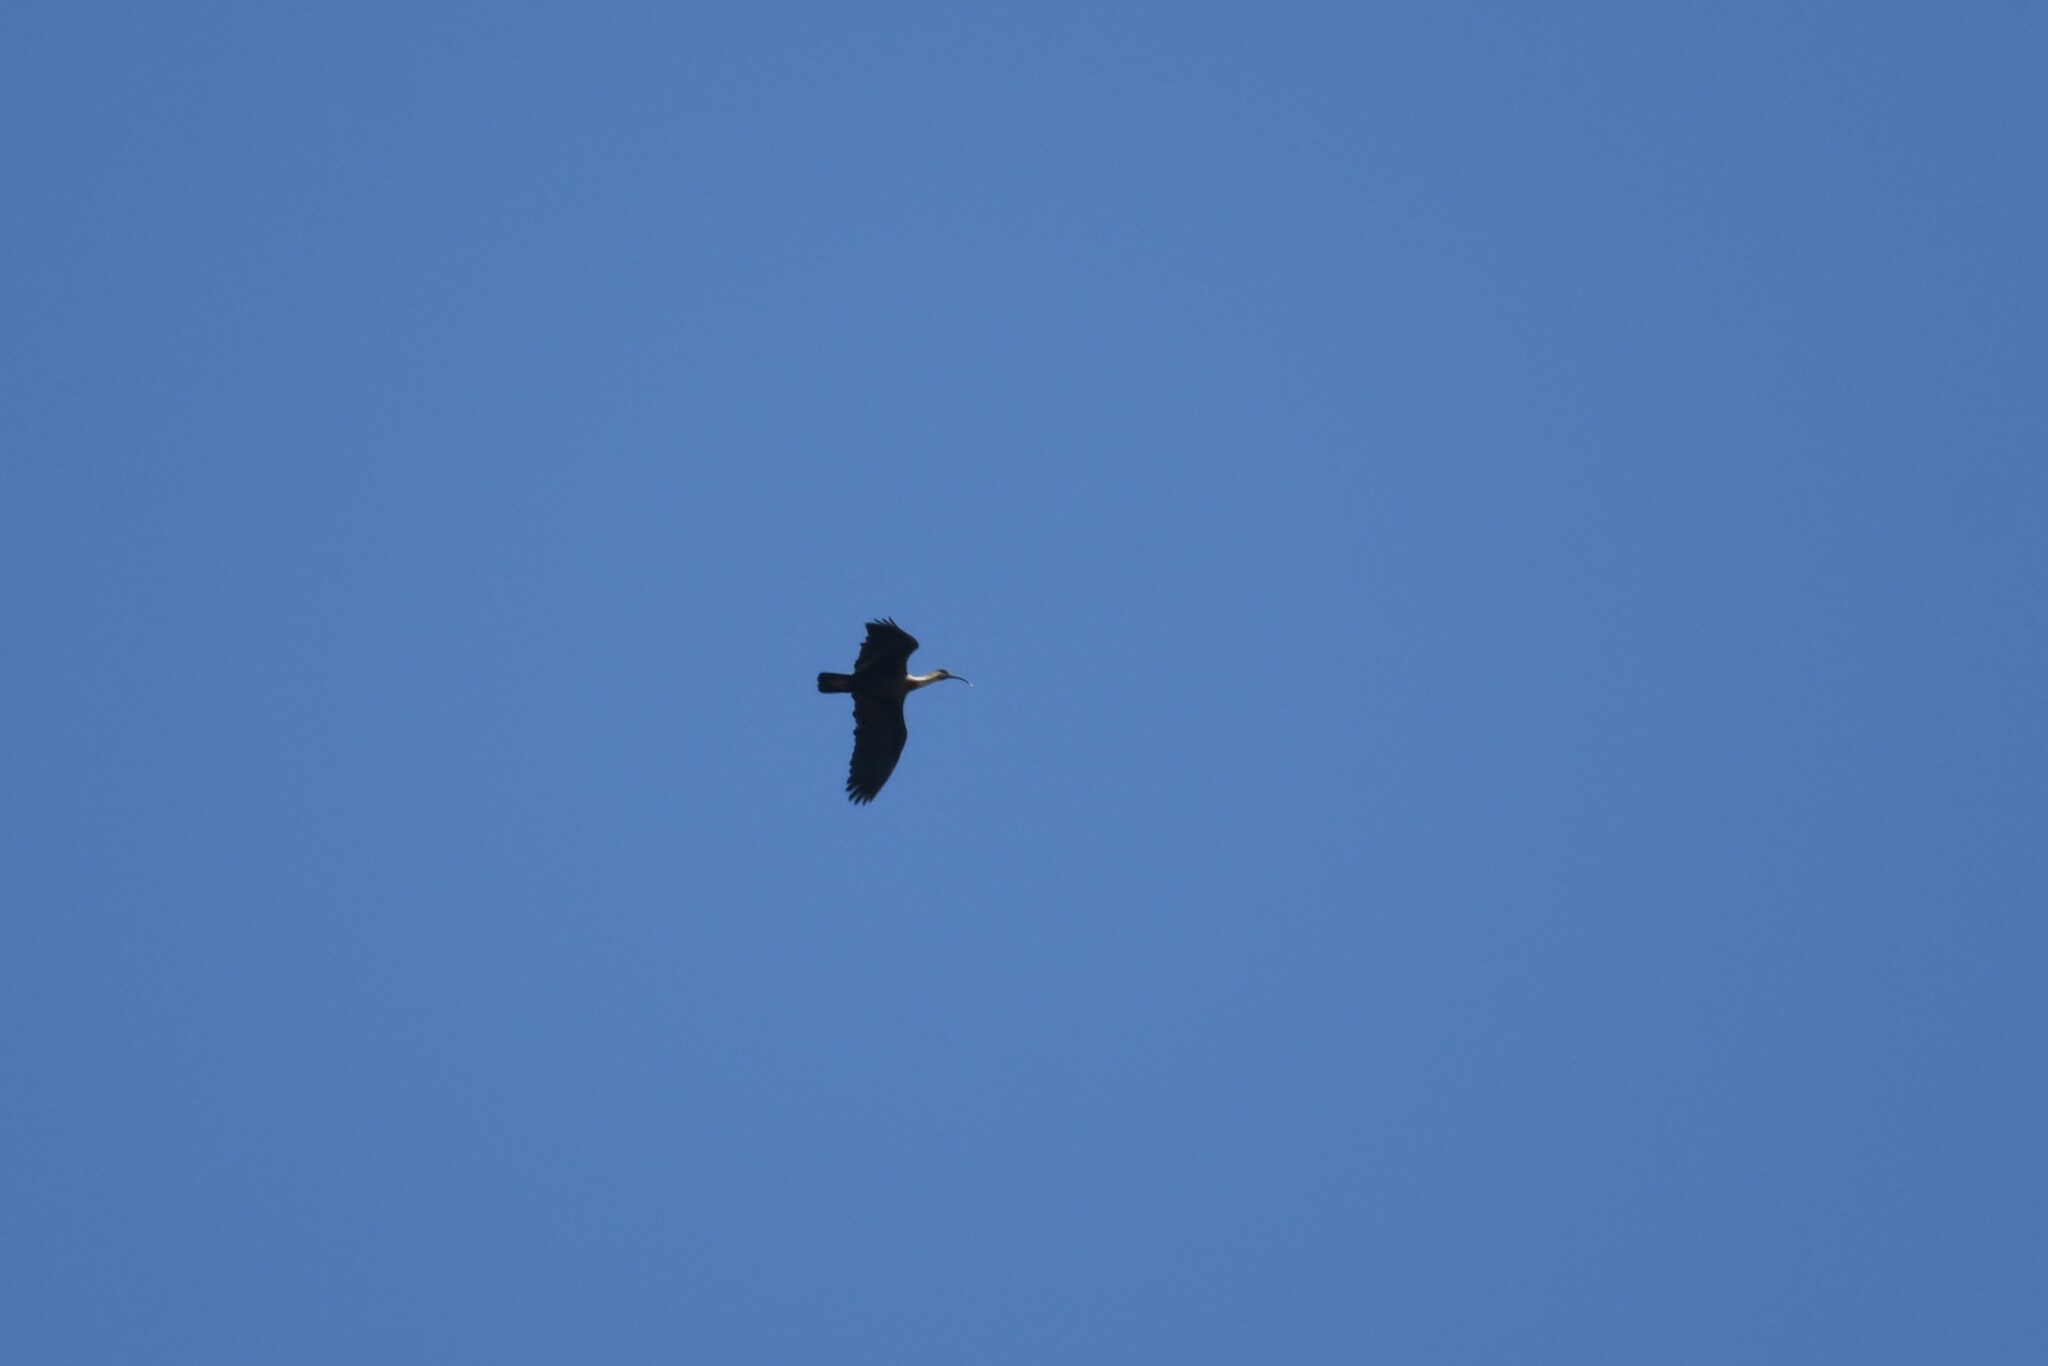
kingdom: Animalia
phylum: Chordata
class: Aves
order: Pelecaniformes
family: Threskiornithidae
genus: Theristicus
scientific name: Theristicus caudatus
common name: Buff-necked ibis
